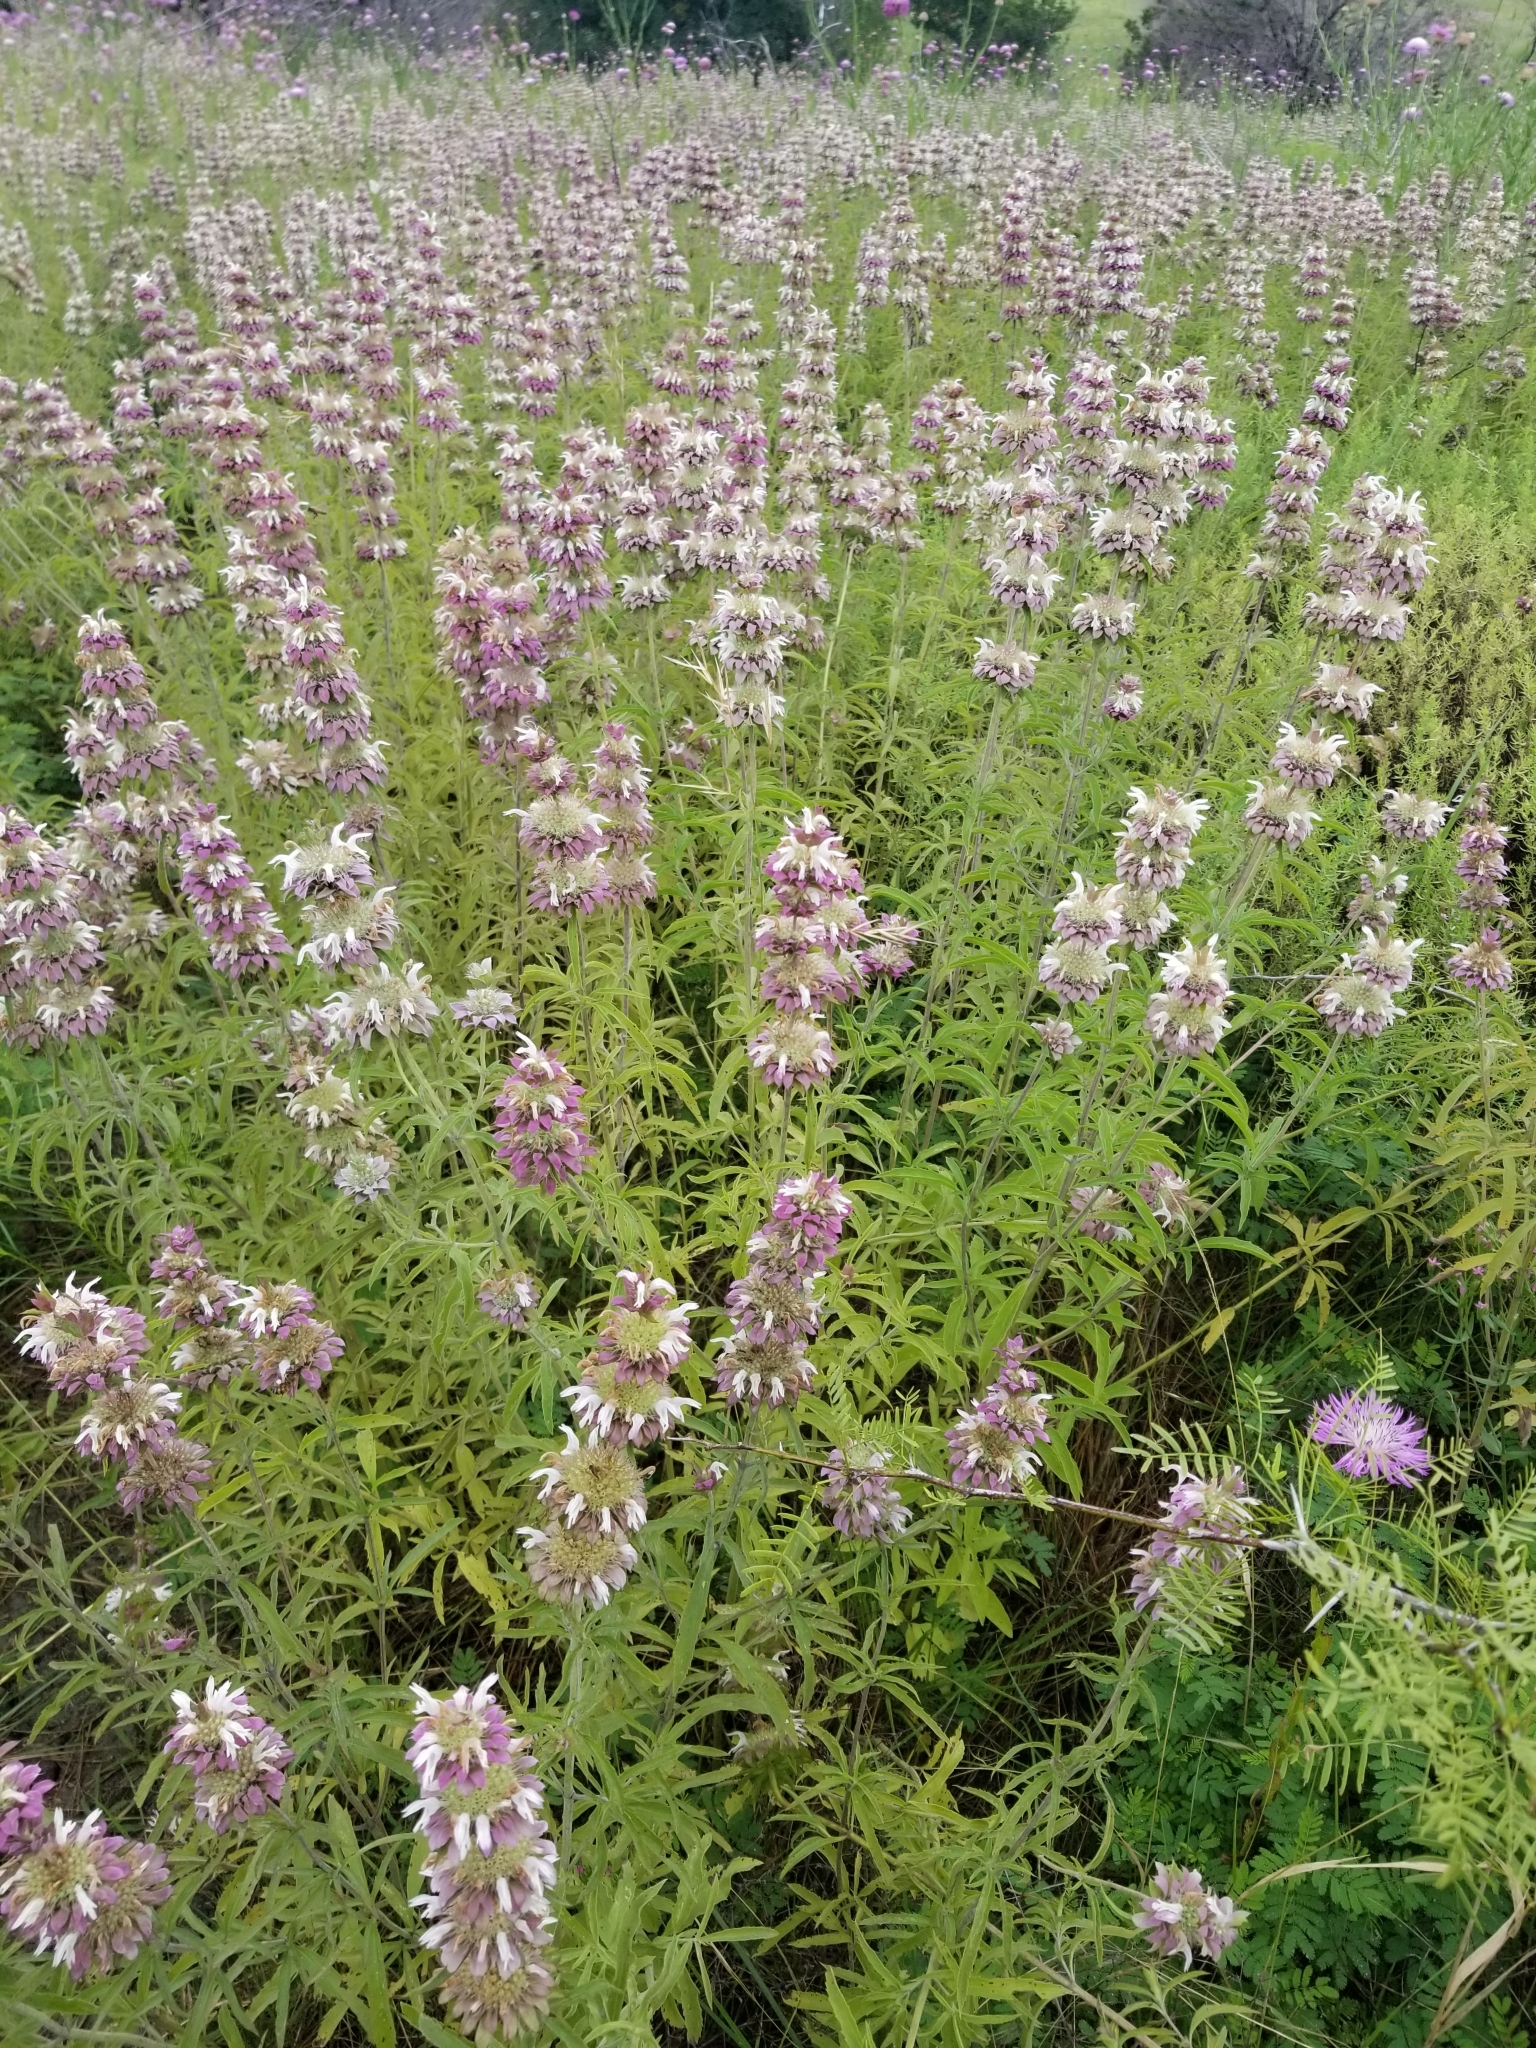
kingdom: Plantae
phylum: Tracheophyta
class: Magnoliopsida
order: Lamiales
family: Lamiaceae
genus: Monarda
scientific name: Monarda citriodora
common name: Lemon beebalm
